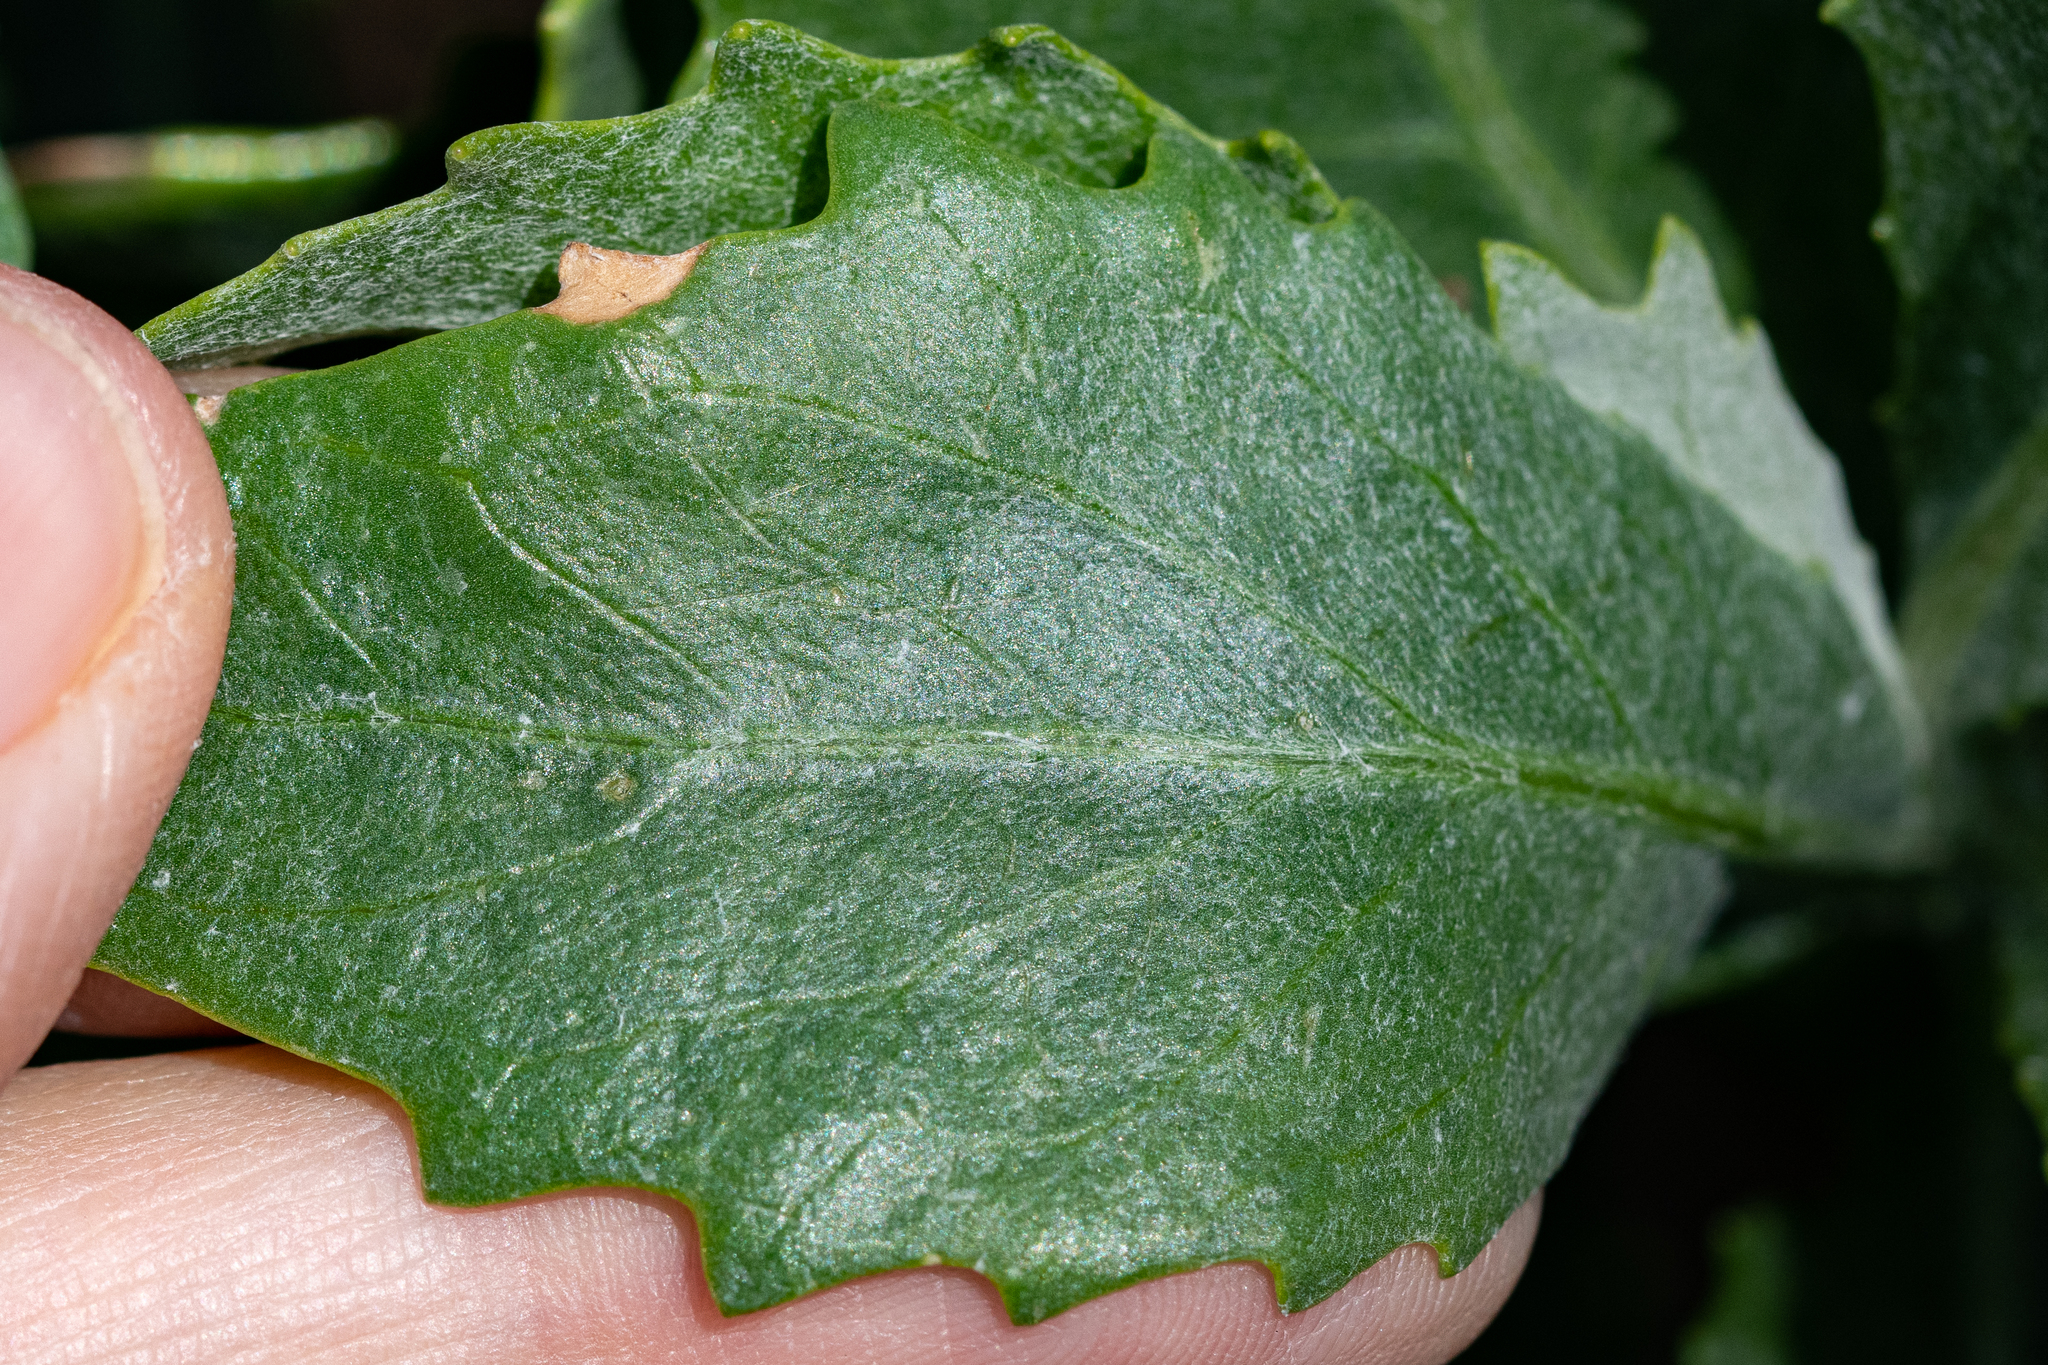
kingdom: Plantae
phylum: Tracheophyta
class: Magnoliopsida
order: Asterales
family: Asteraceae
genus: Senecio
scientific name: Senecio halimifolius
